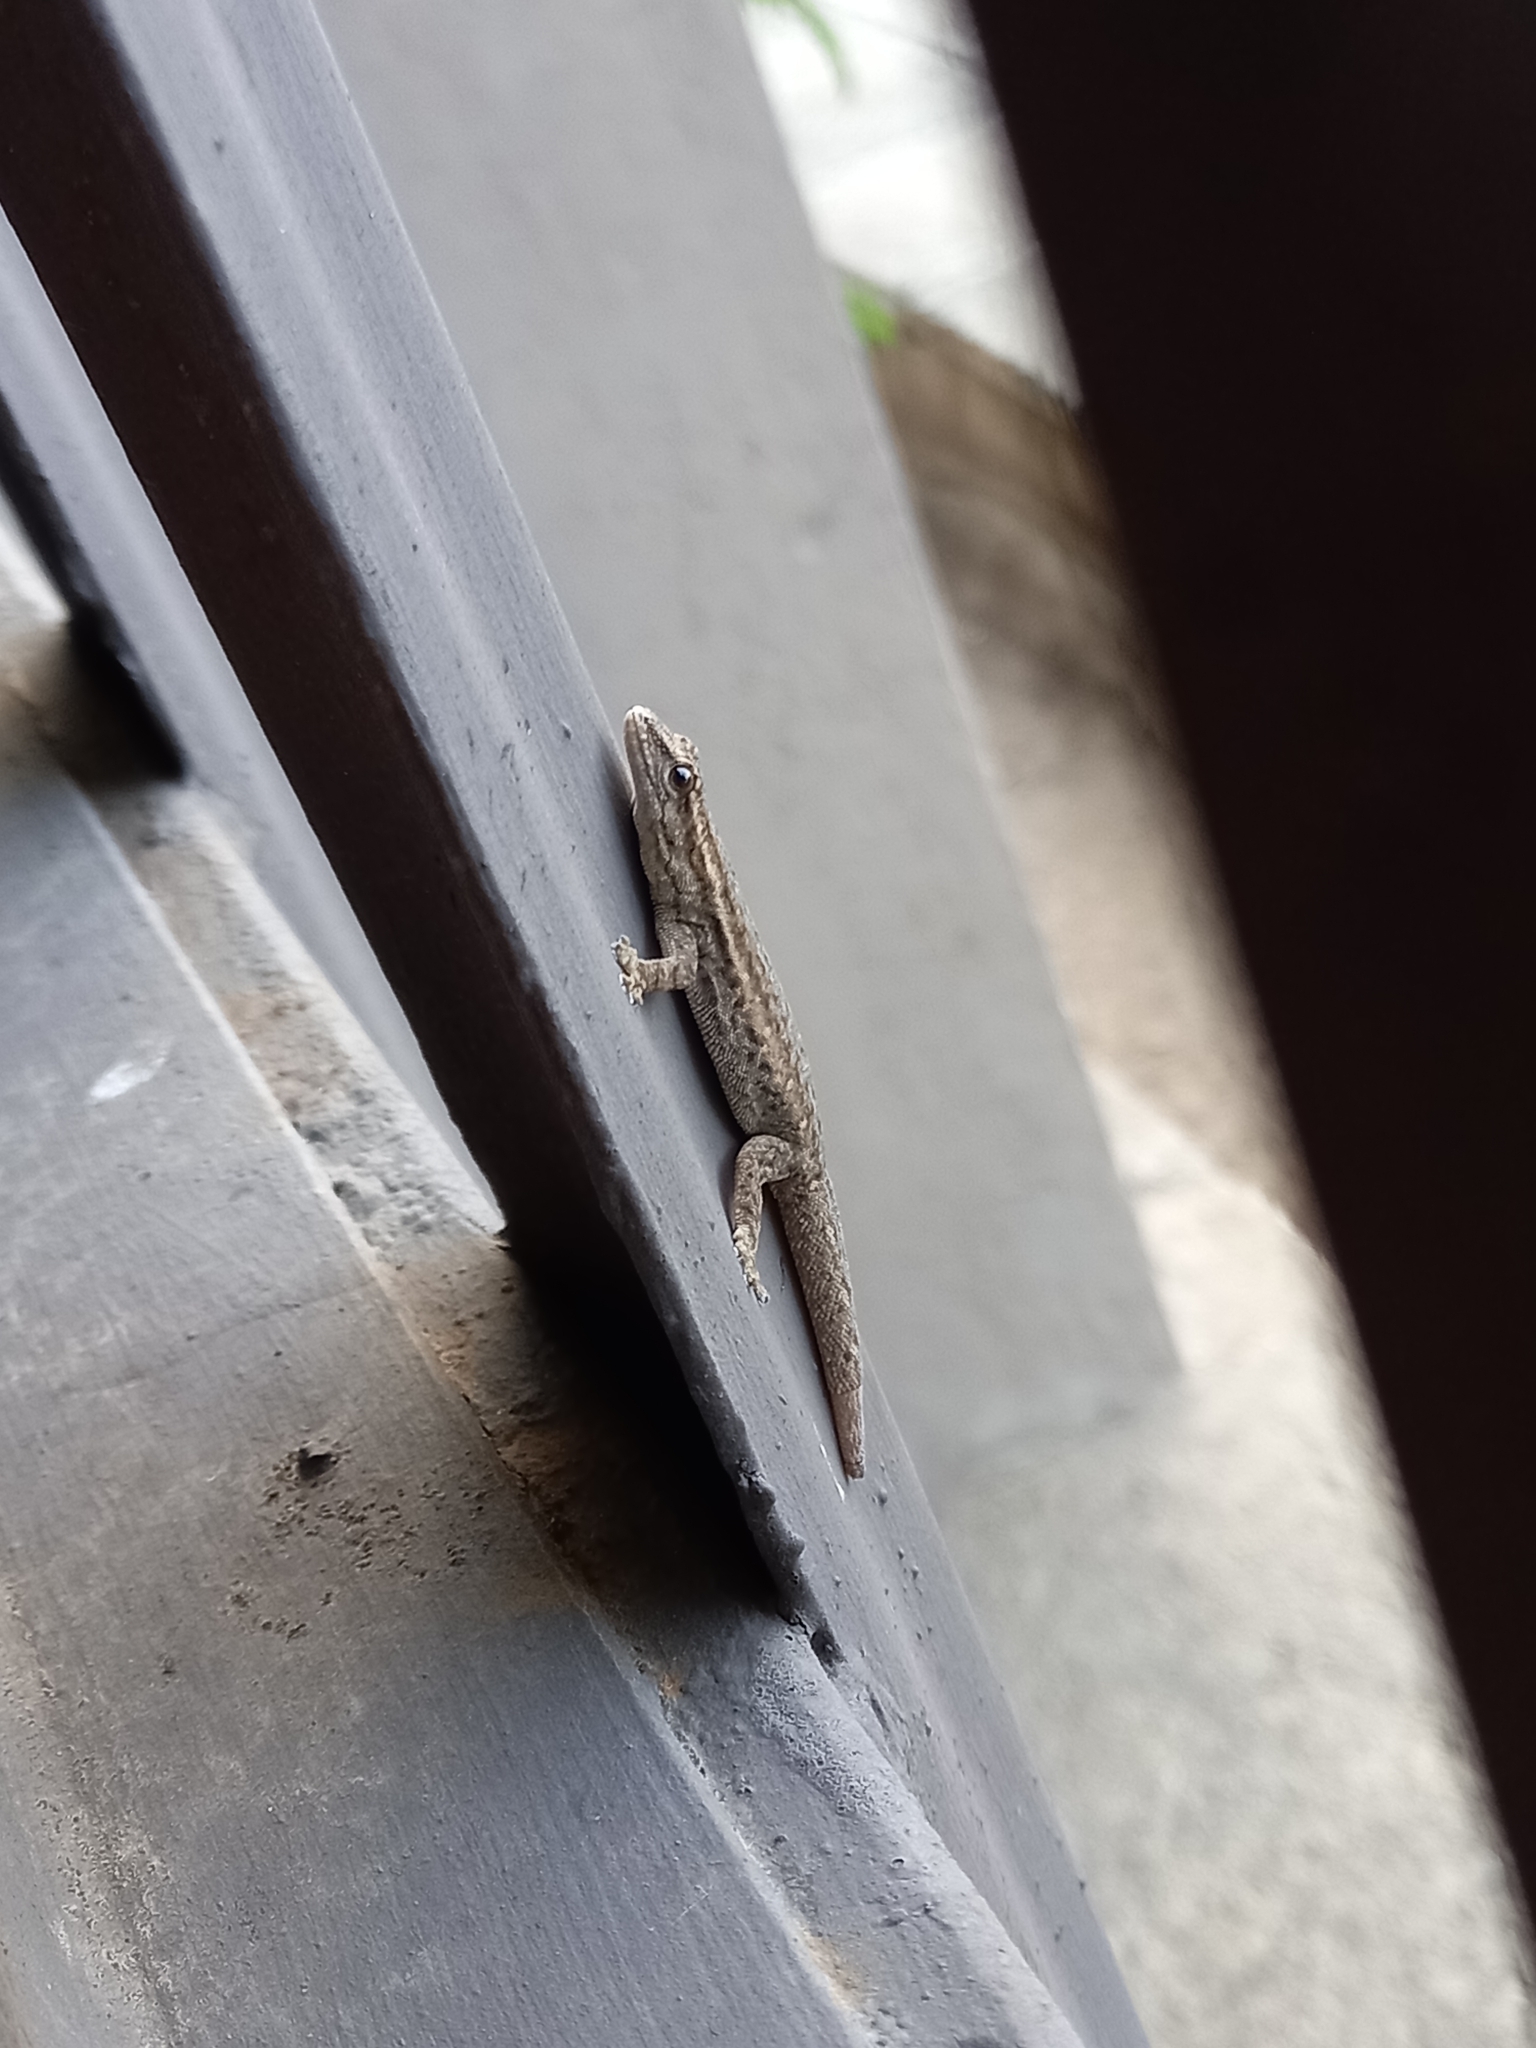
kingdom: Animalia
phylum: Chordata
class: Squamata
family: Gekkonidae
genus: Lygodactylus
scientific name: Lygodactylus capensis
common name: Cape dwarf gecko
